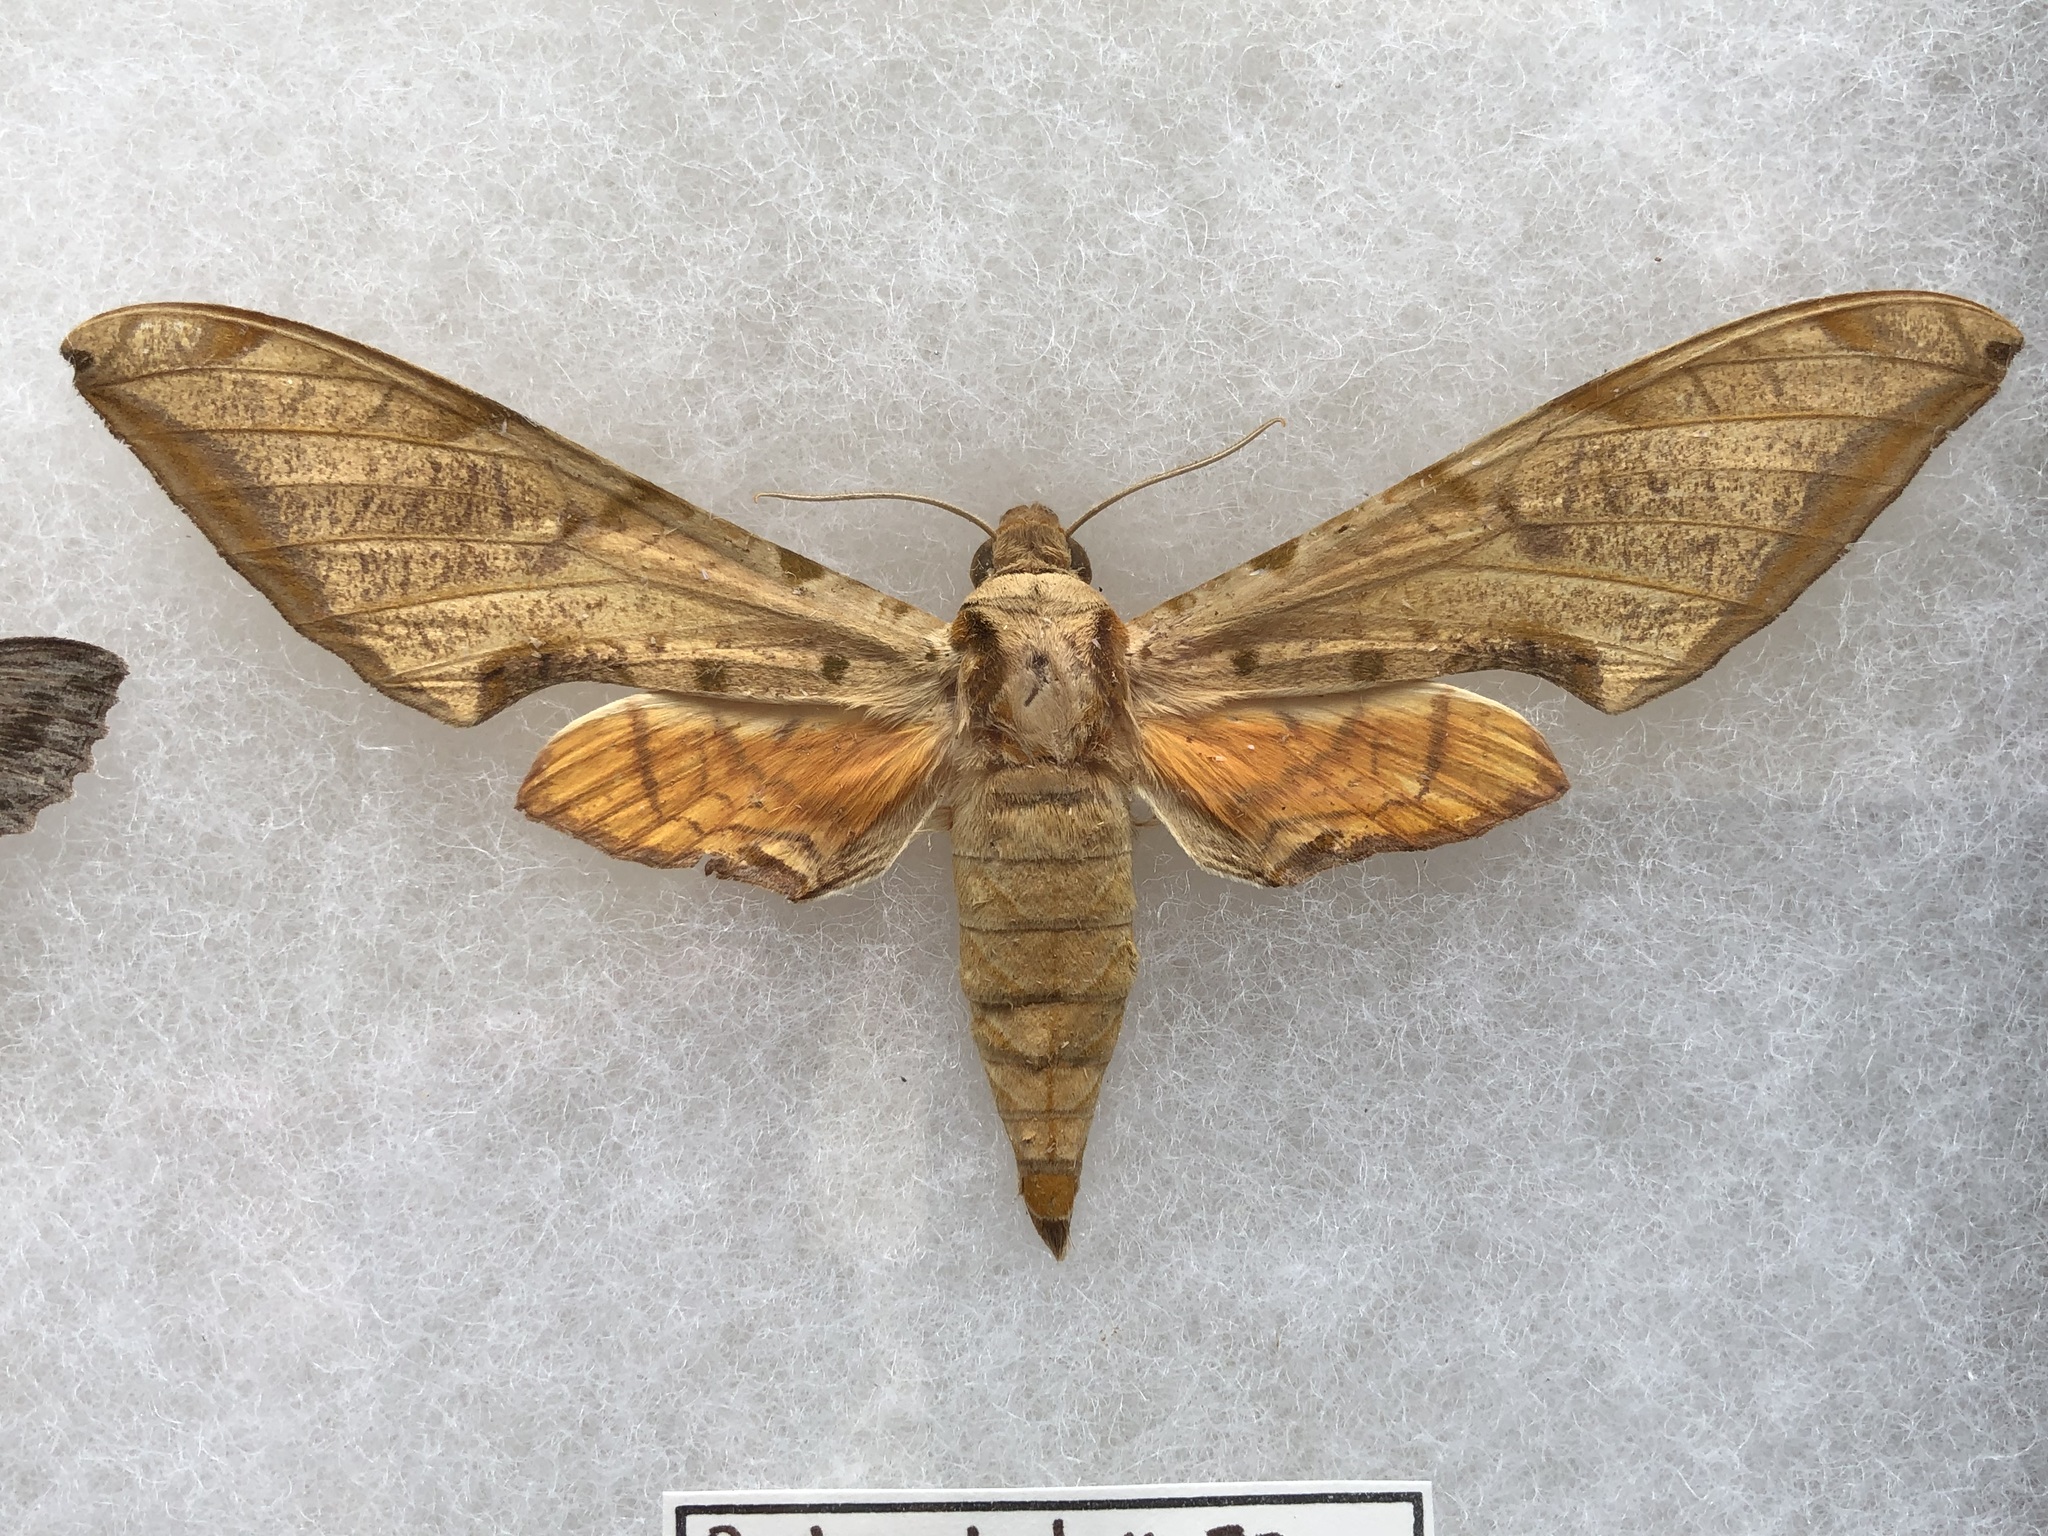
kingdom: Animalia
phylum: Arthropoda
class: Insecta
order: Lepidoptera
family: Sphingidae
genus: Protambulyx
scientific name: Protambulyx strigilis
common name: Streaked sphinx
